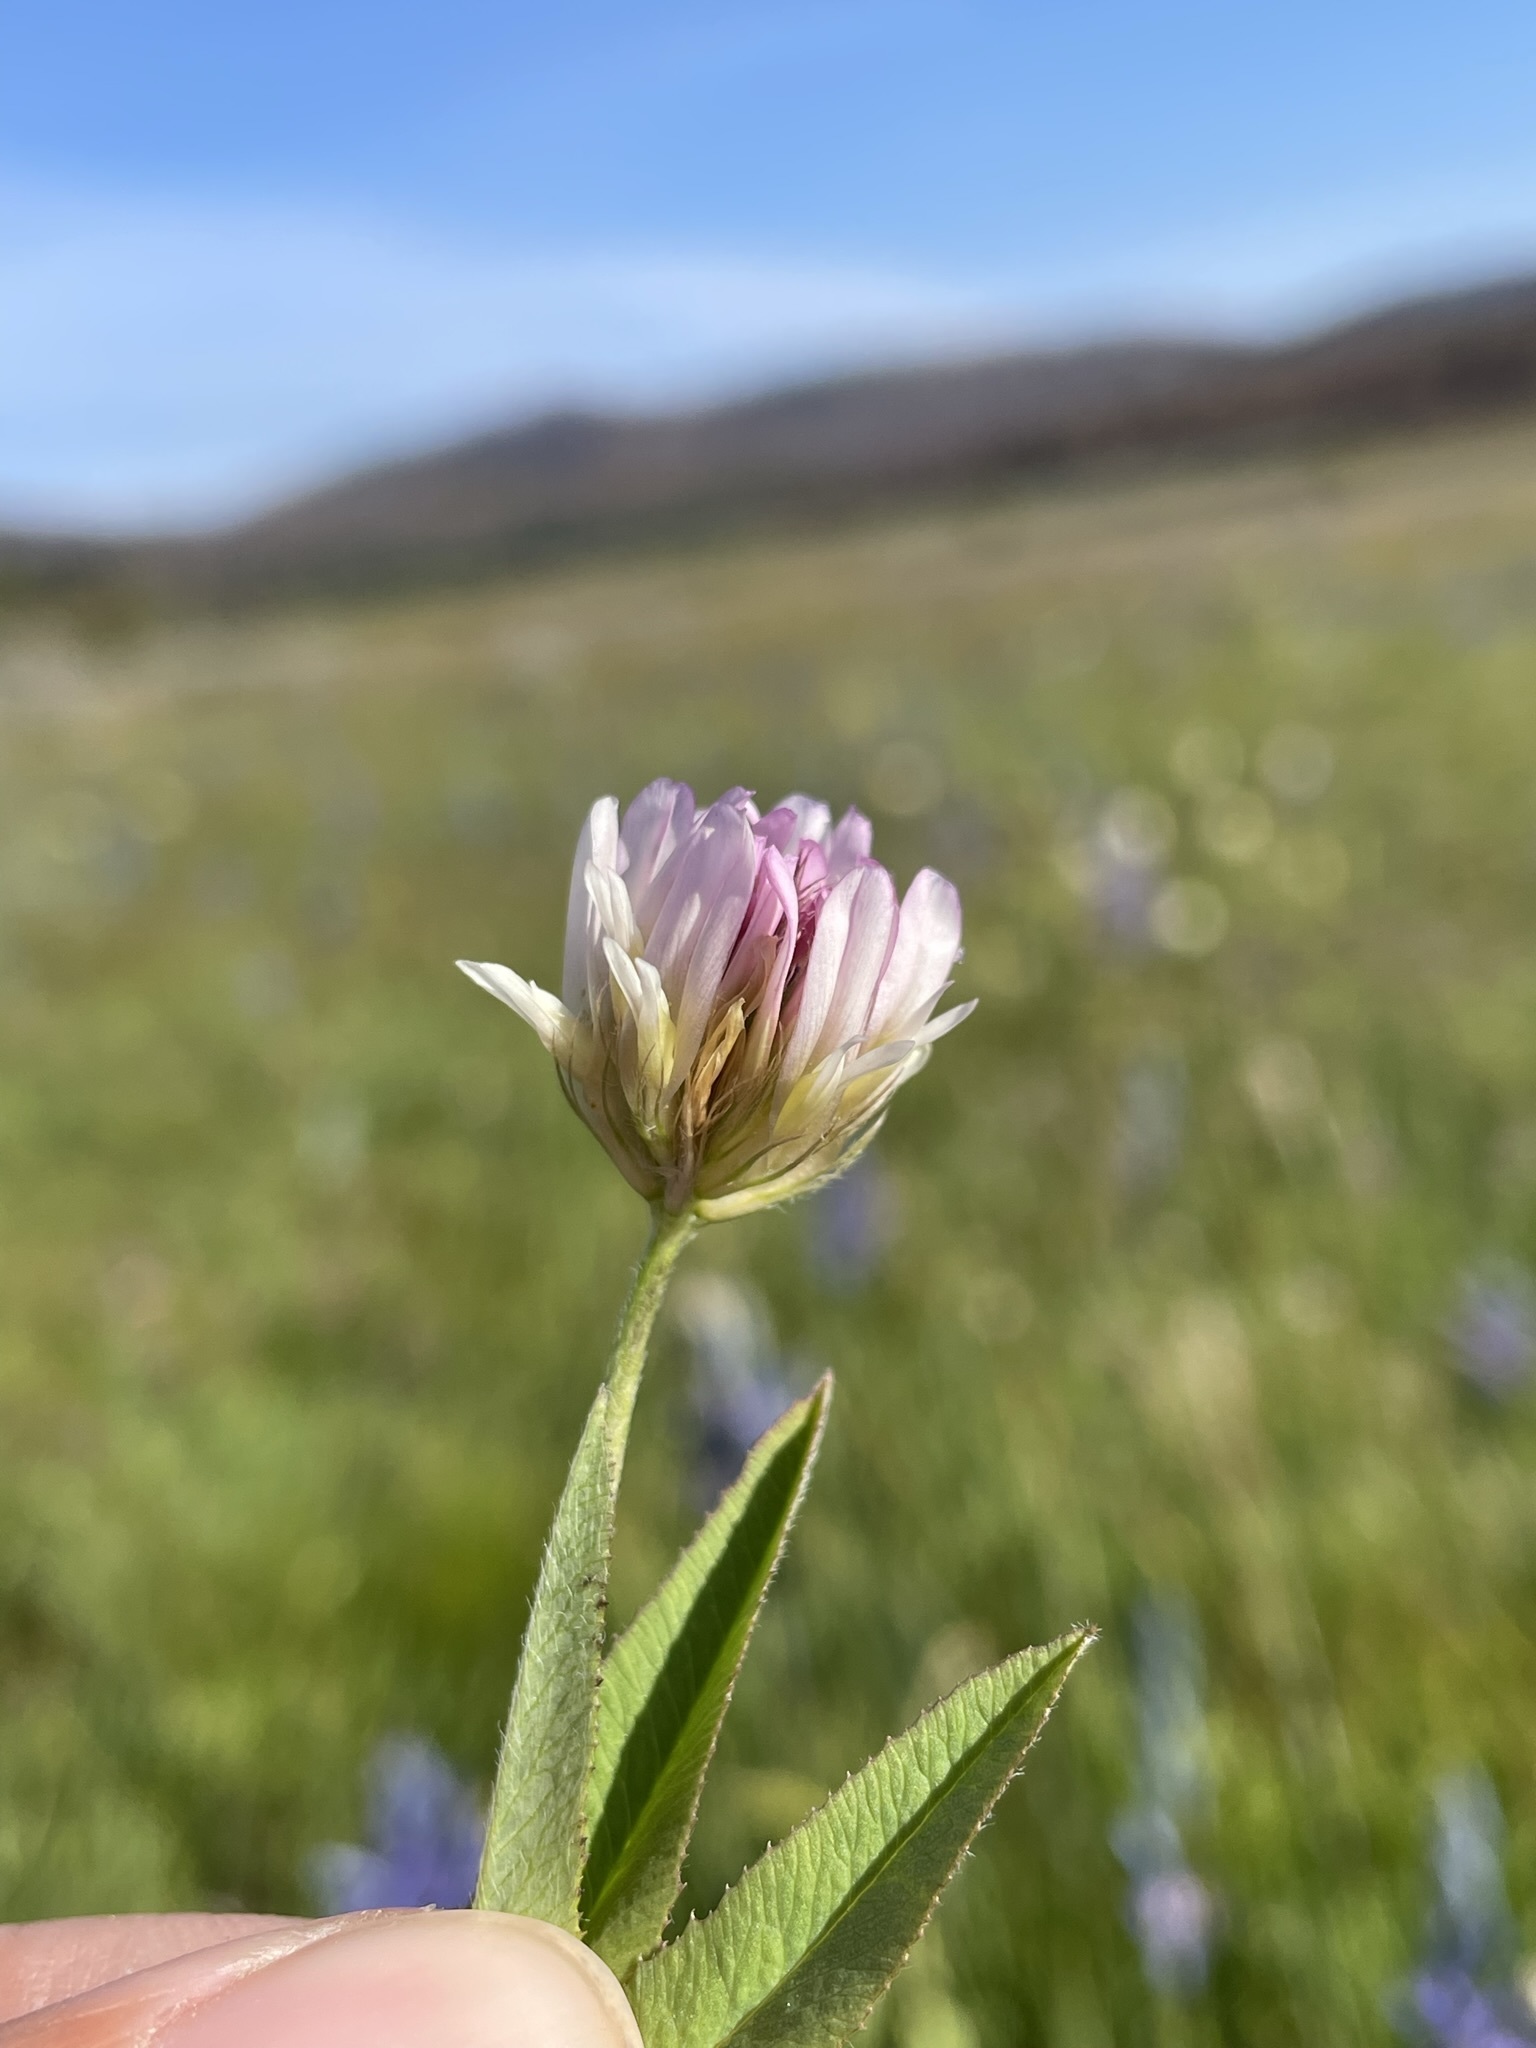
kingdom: Plantae
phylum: Tracheophyta
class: Magnoliopsida
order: Fabales
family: Fabaceae
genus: Trifolium
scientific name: Trifolium longipes
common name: Long-stalk clover
